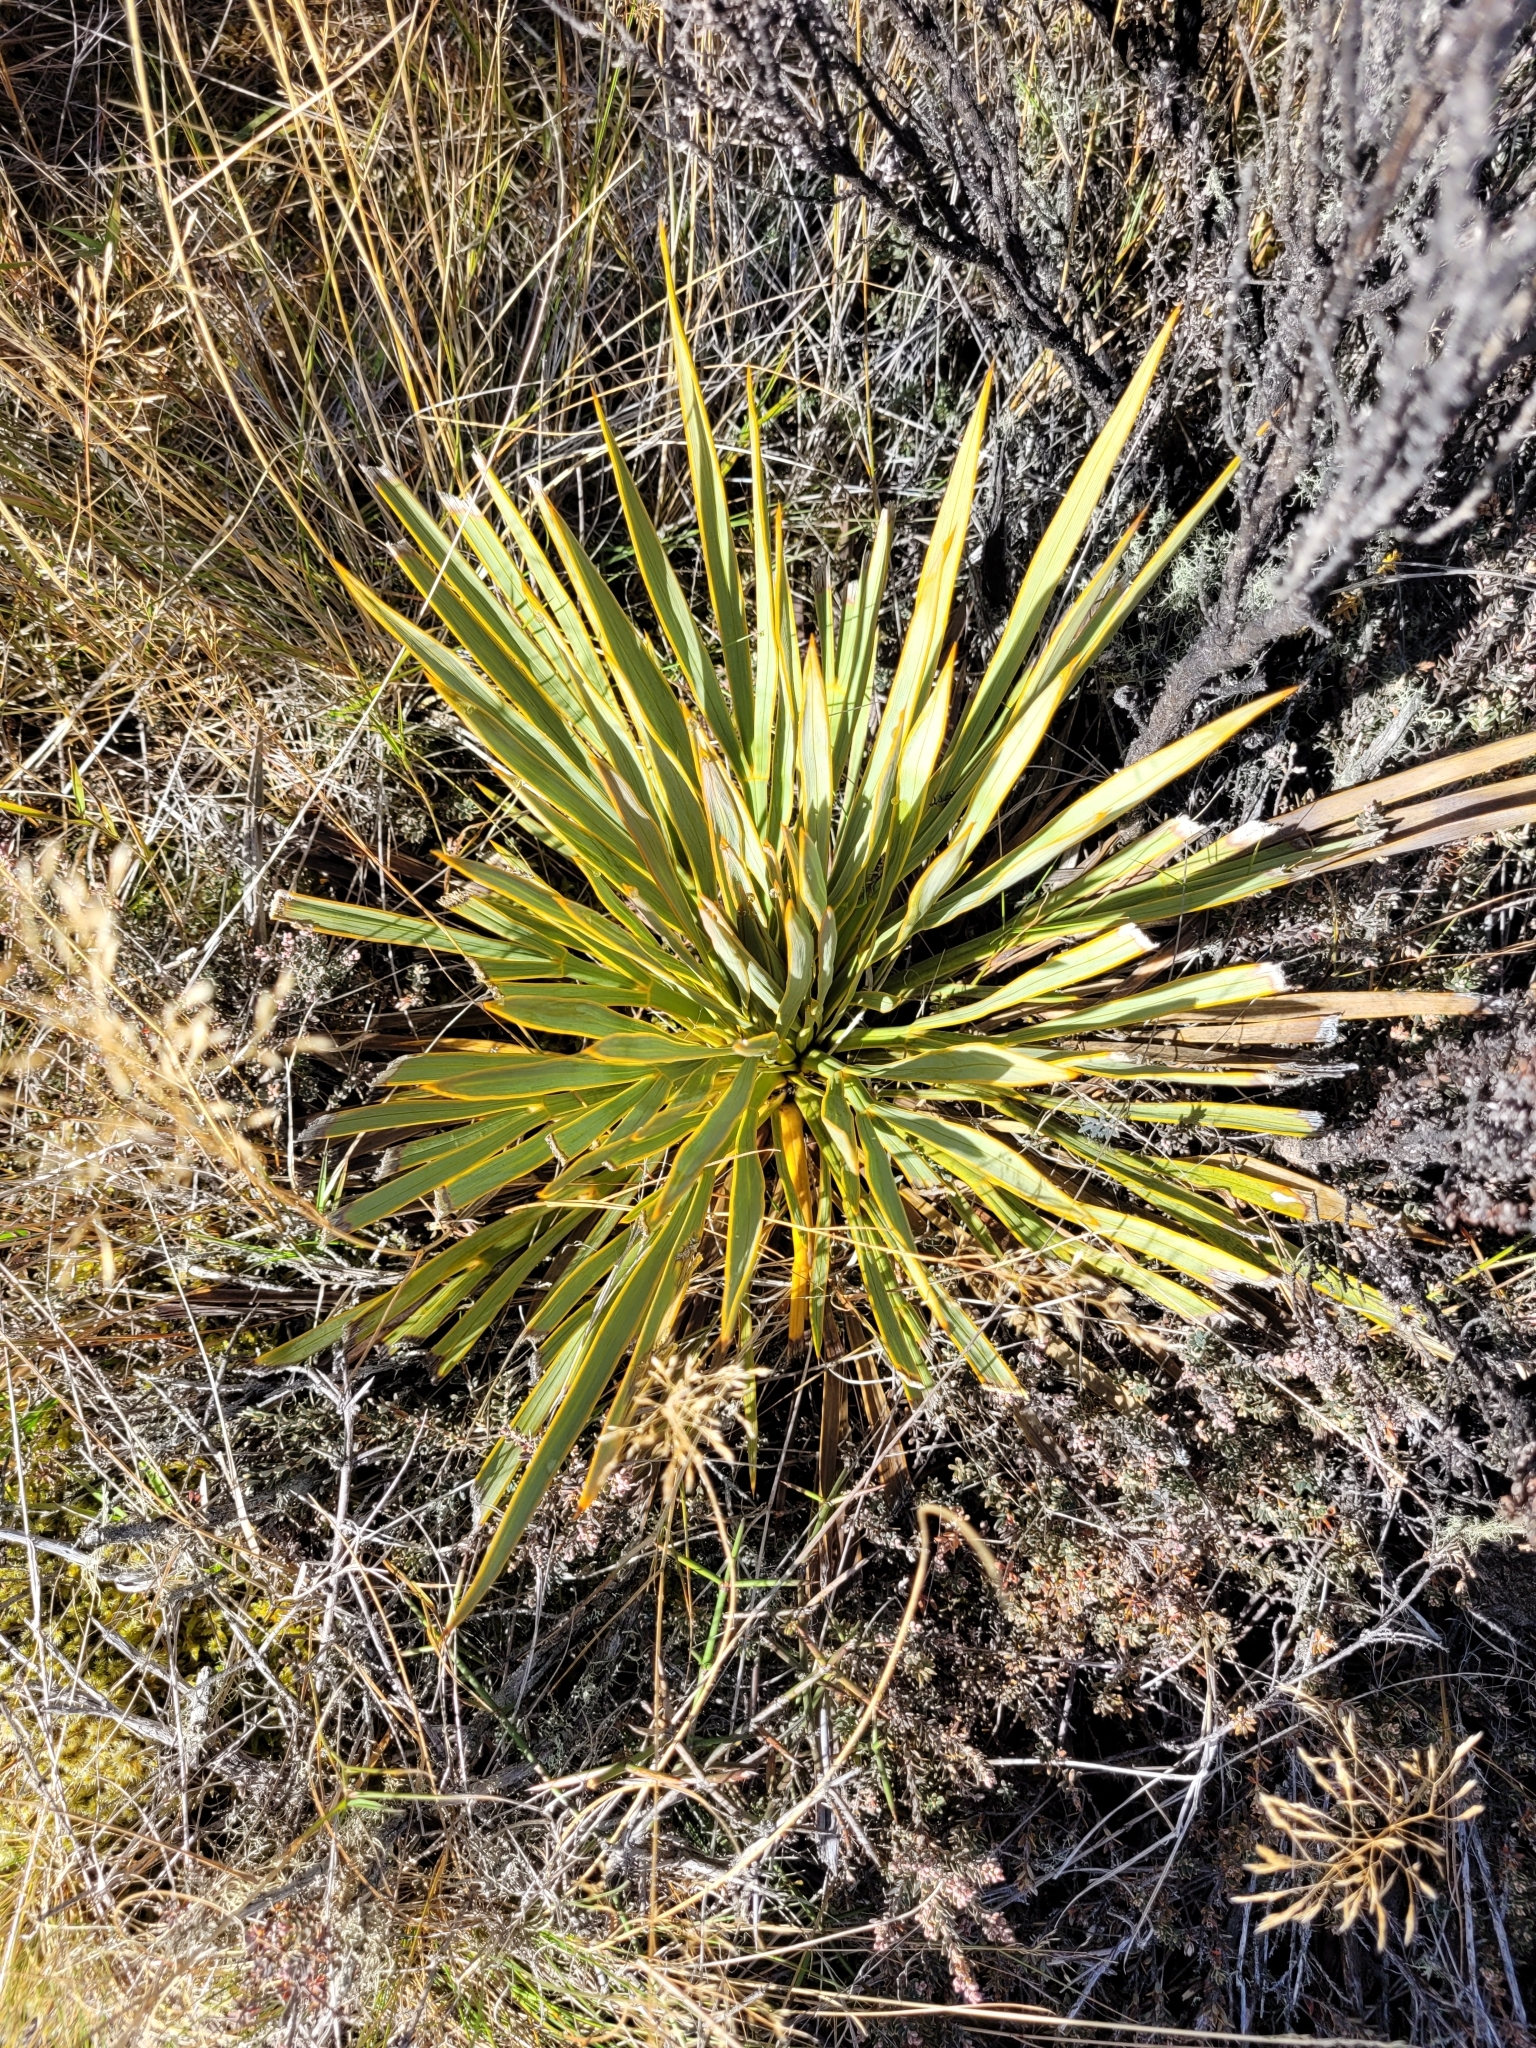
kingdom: Plantae
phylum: Tracheophyta
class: Magnoliopsida
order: Apiales
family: Apiaceae
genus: Aciphylla
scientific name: Aciphylla aurea
